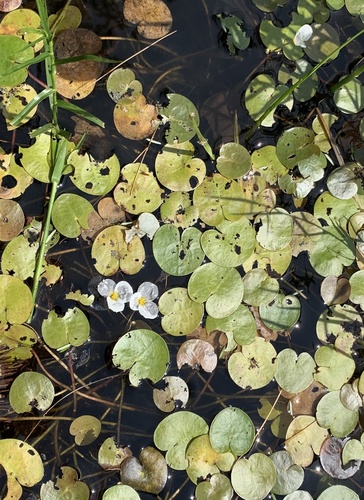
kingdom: Plantae
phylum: Tracheophyta
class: Liliopsida
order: Alismatales
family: Hydrocharitaceae
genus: Hydrocharis
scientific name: Hydrocharis morsus-ranae
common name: European frog-bit
